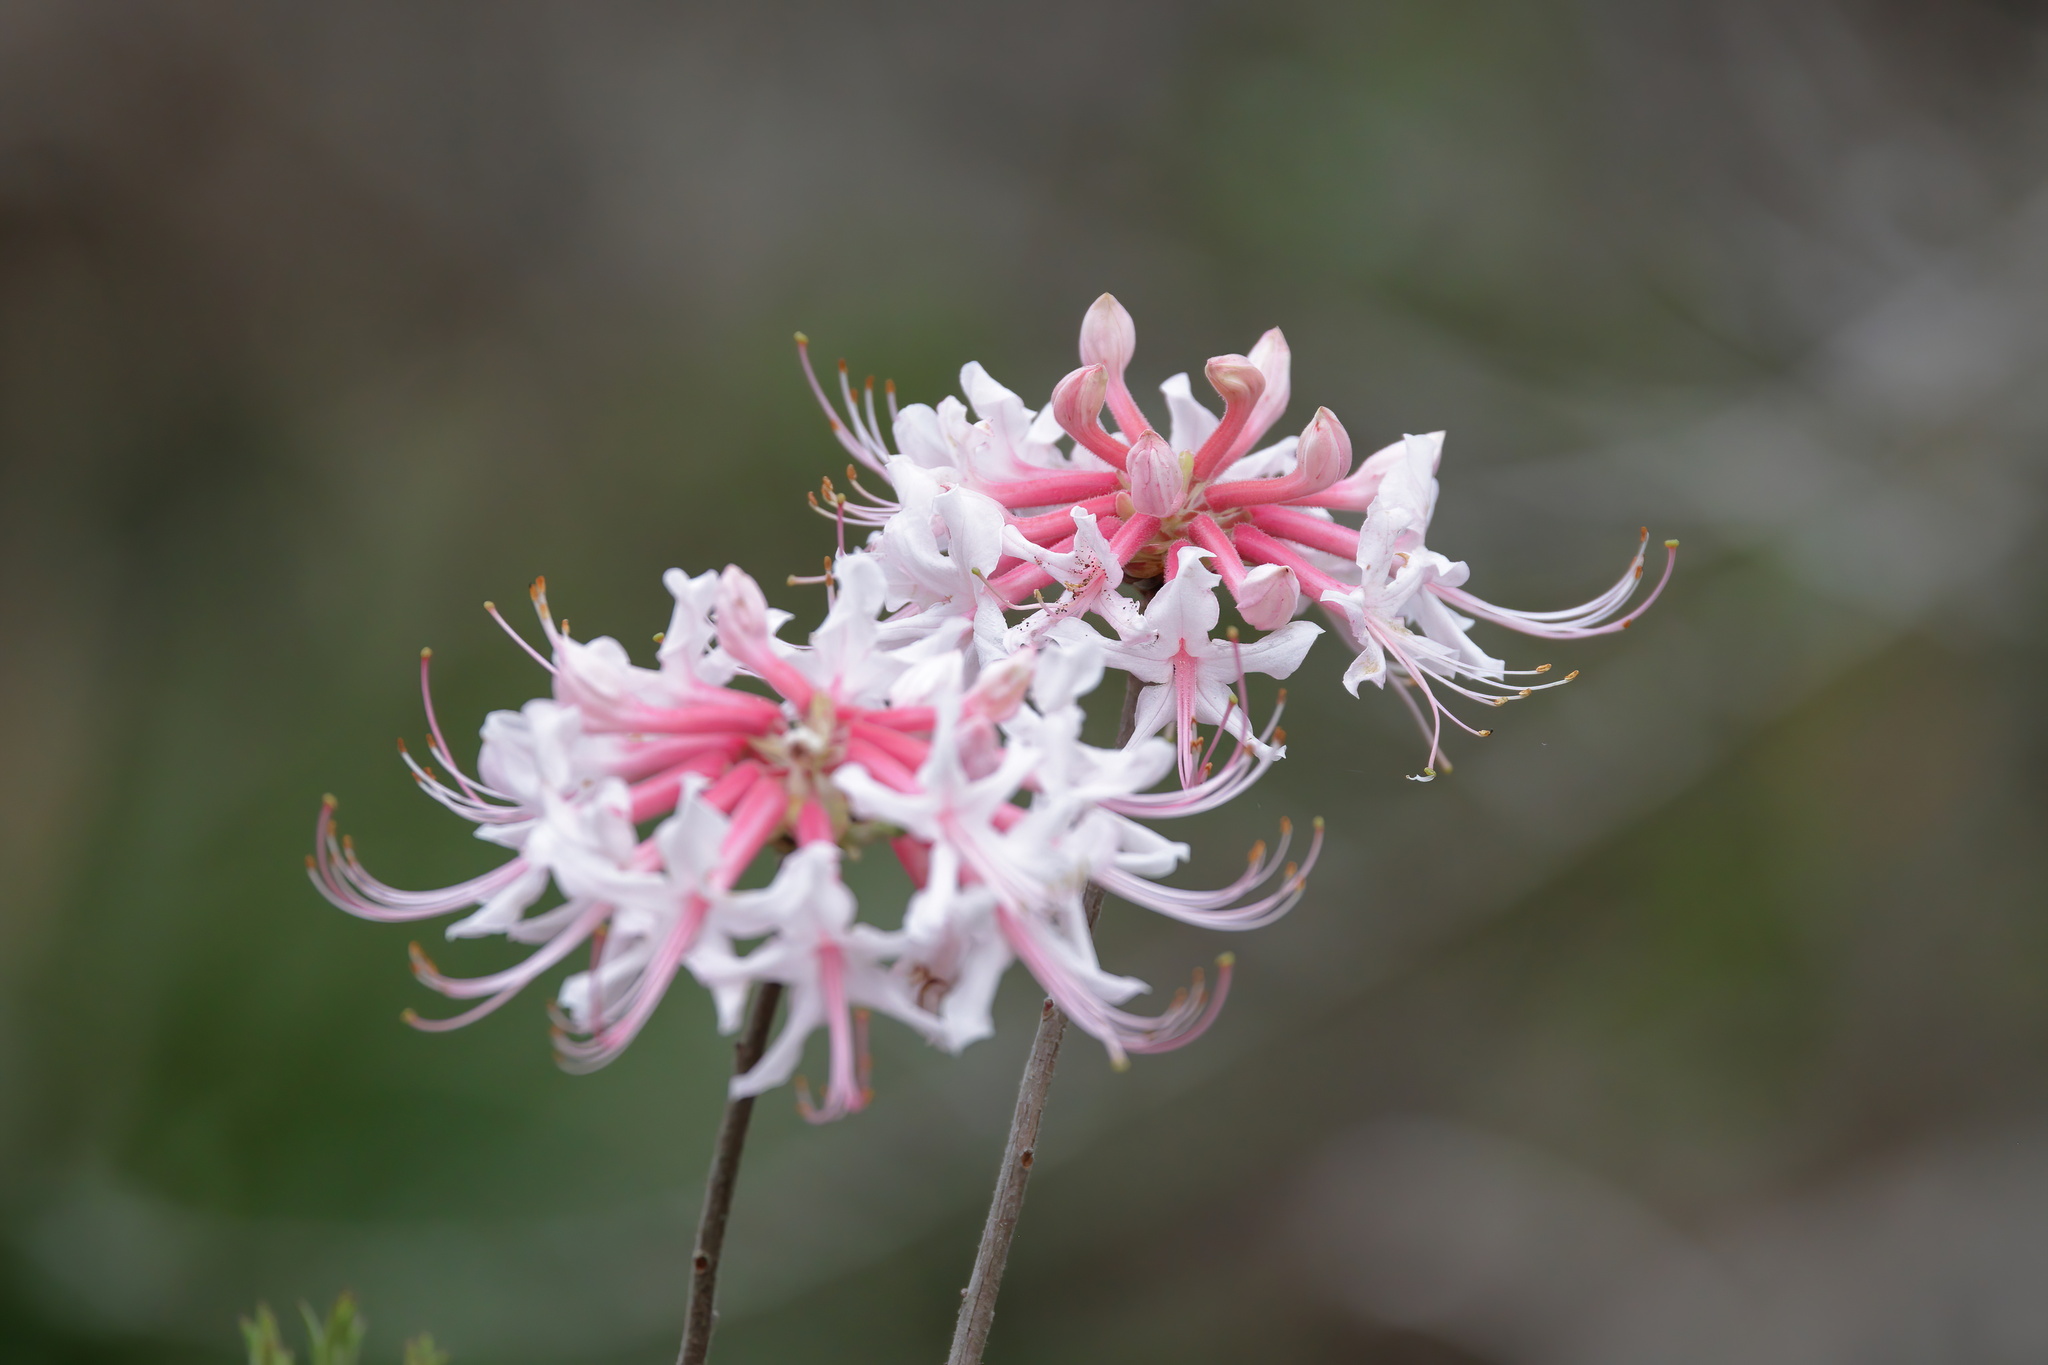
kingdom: Plantae
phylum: Tracheophyta
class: Magnoliopsida
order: Ericales
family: Ericaceae
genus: Rhododendron
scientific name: Rhododendron canescens
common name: Mountain azalea
